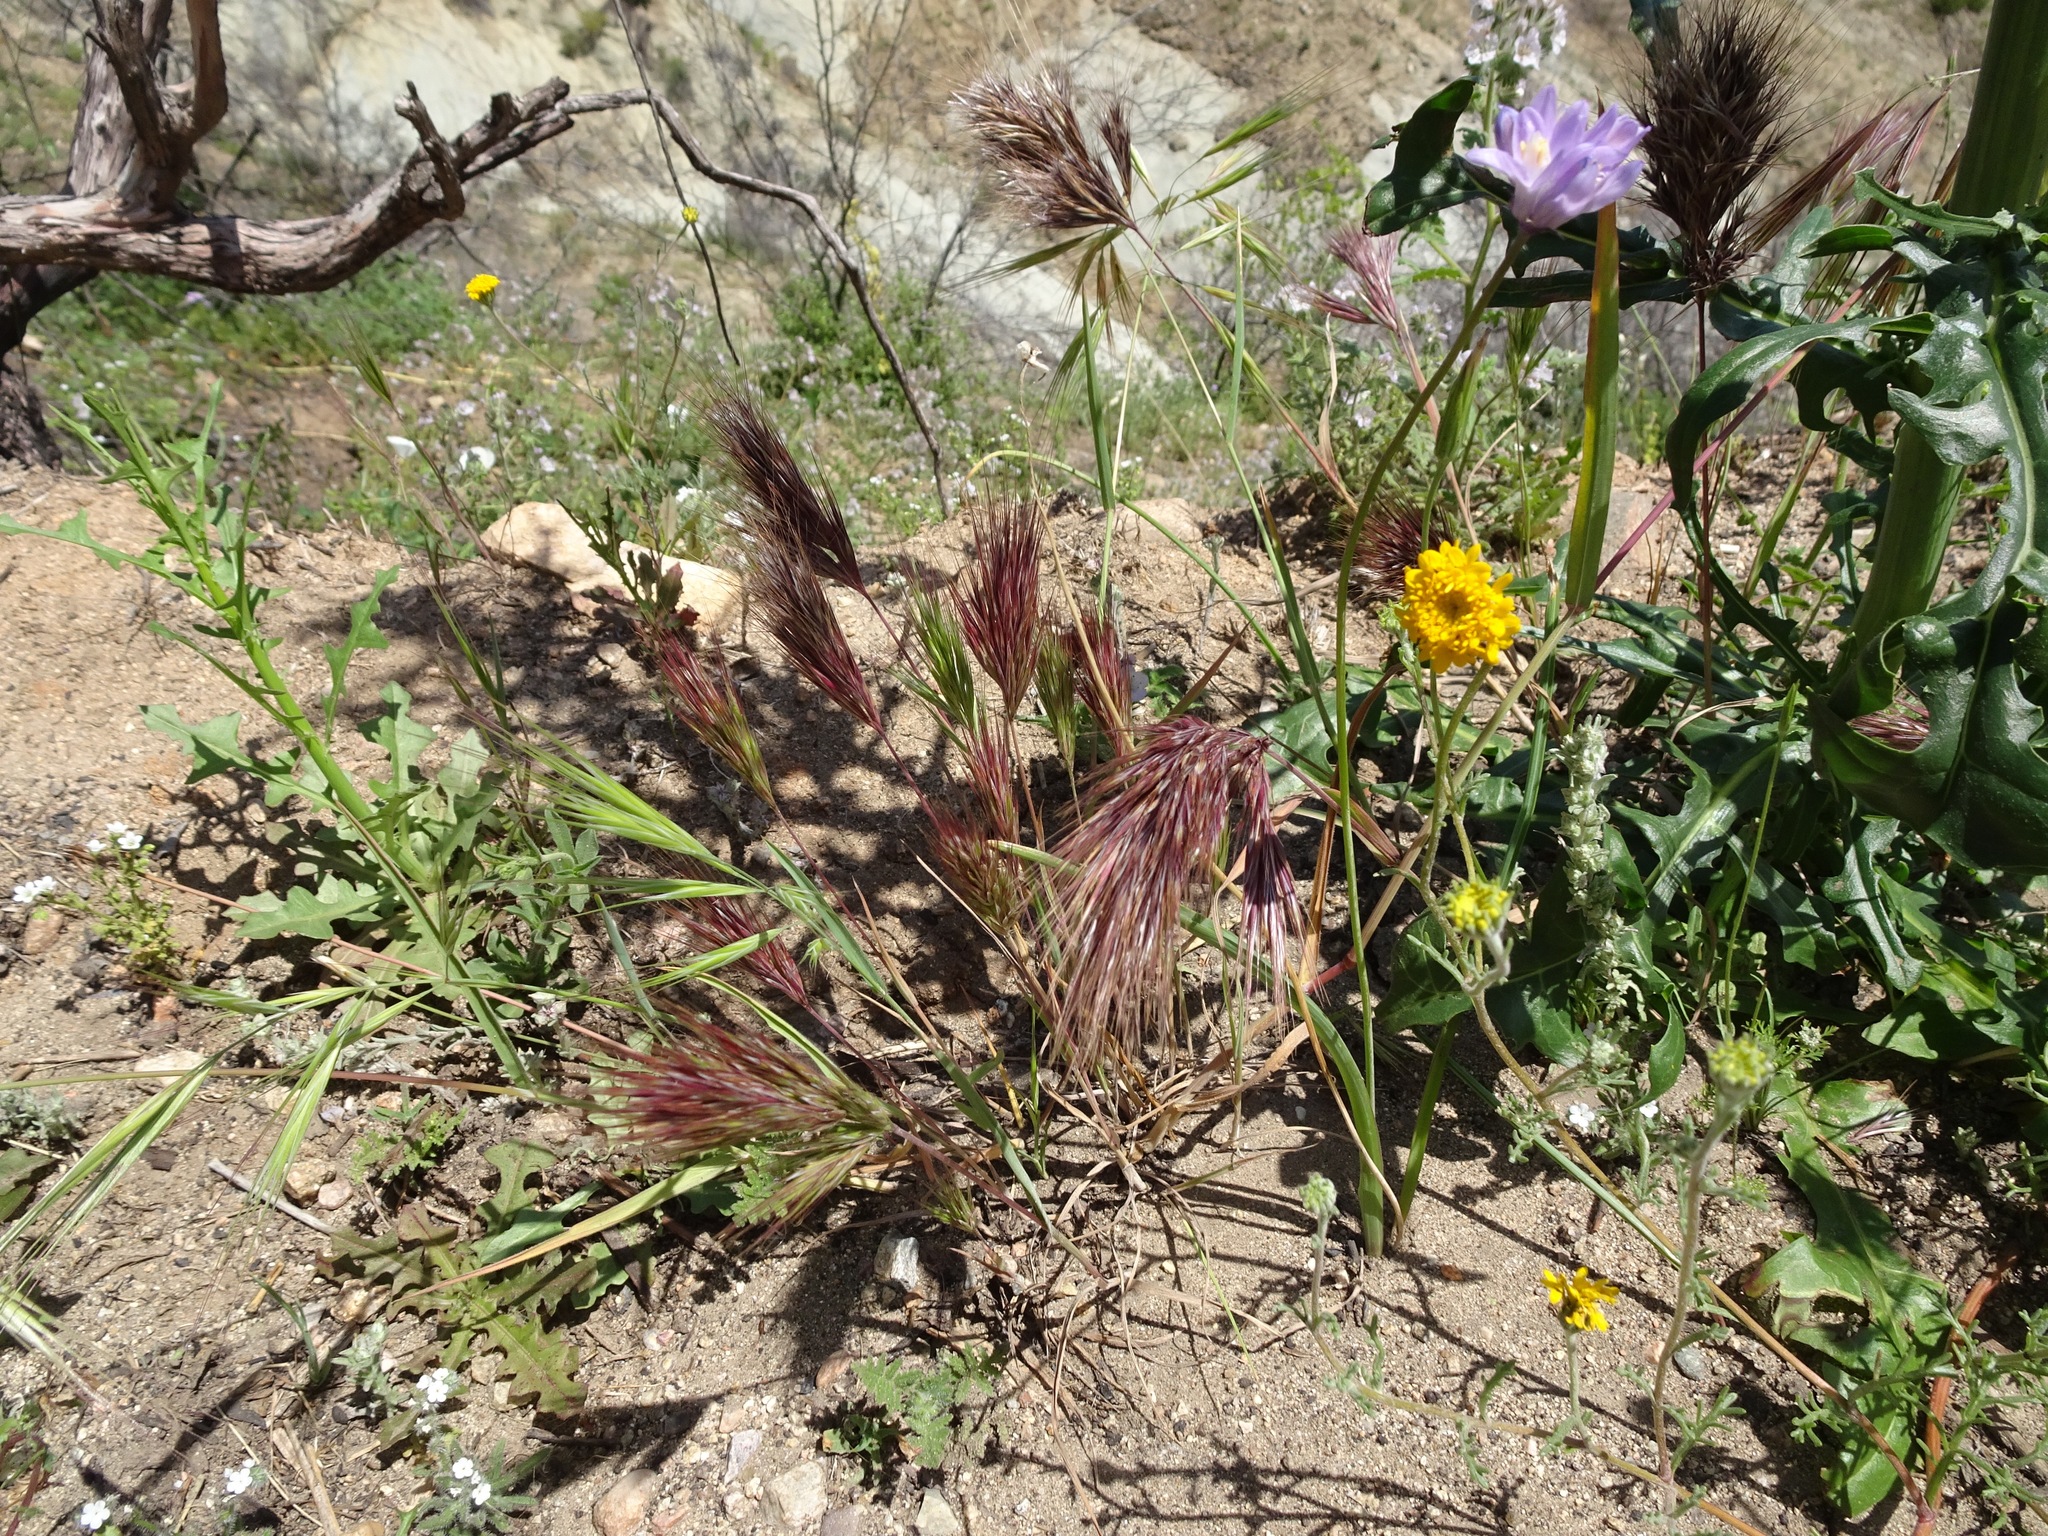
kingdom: Plantae
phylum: Tracheophyta
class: Liliopsida
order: Asparagales
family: Asparagaceae
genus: Dipterostemon
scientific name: Dipterostemon capitatus
